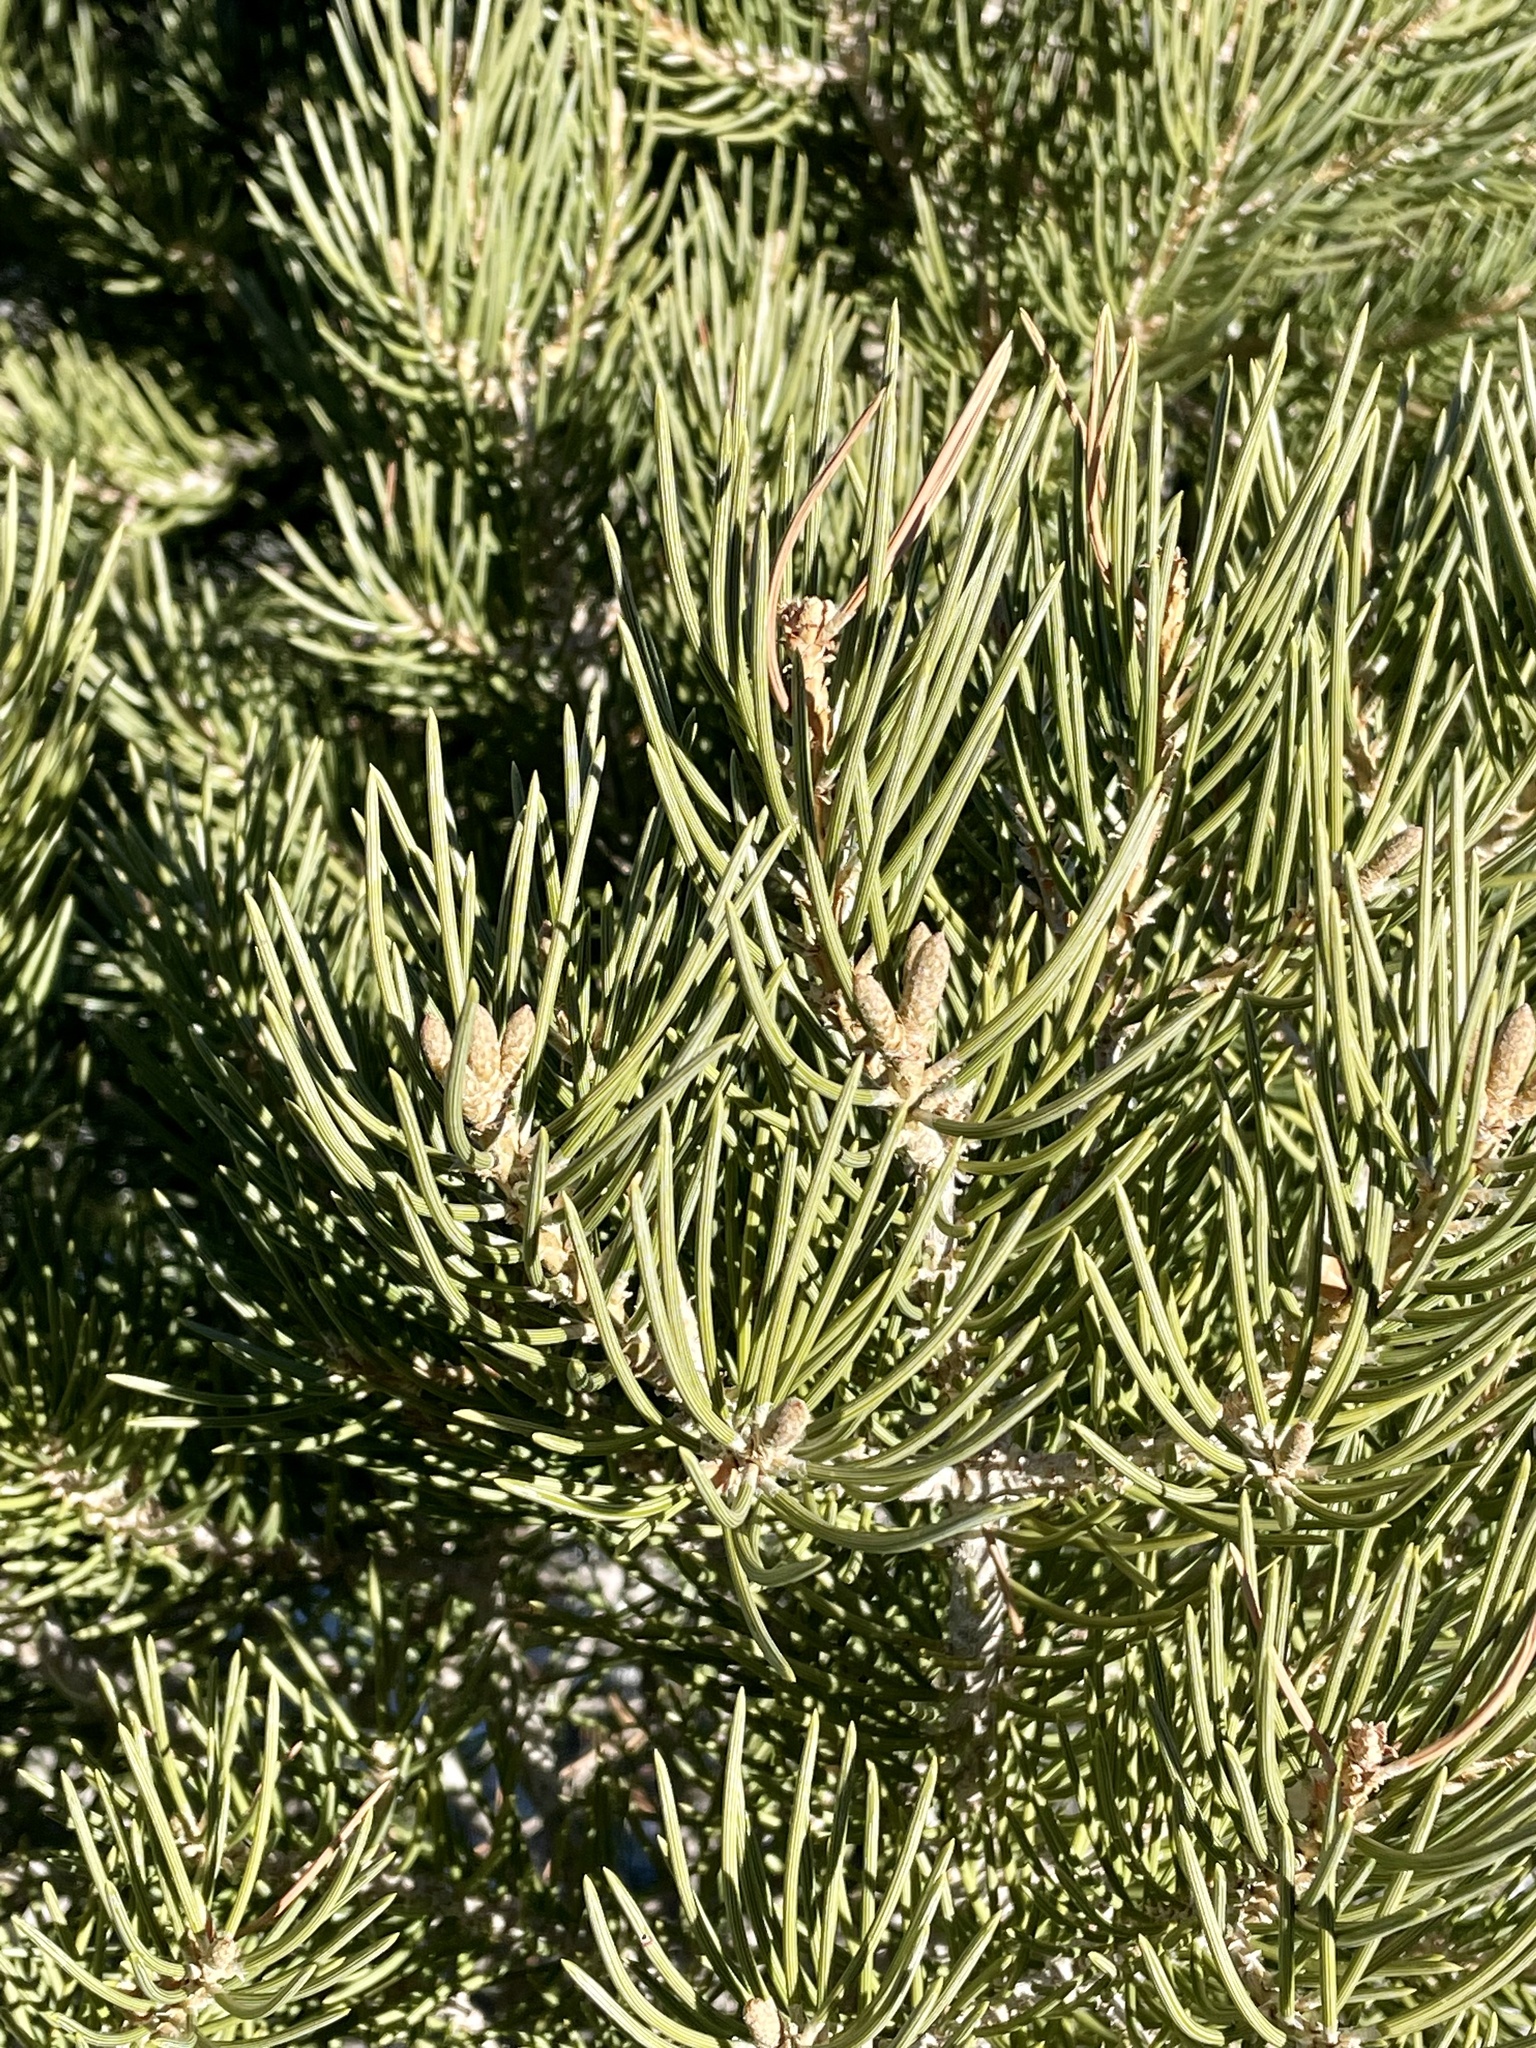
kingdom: Plantae
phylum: Tracheophyta
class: Pinopsida
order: Pinales
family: Pinaceae
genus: Pinus
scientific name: Pinus monophylla
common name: One-leaved nut pine
